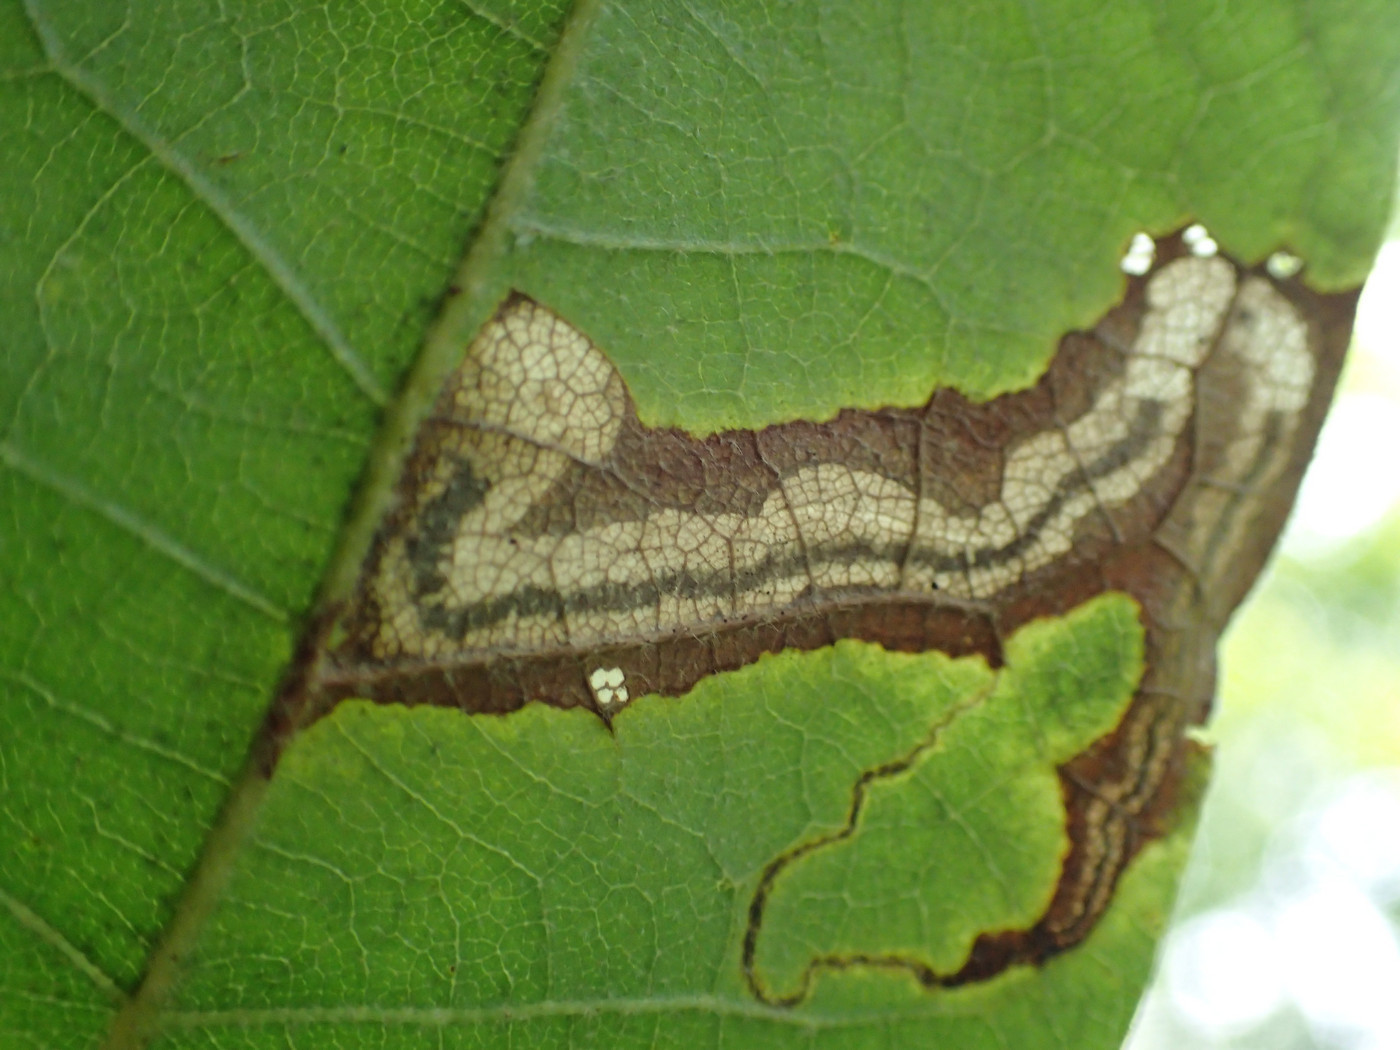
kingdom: Animalia
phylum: Arthropoda
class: Insecta
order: Lepidoptera
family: Nepticulidae
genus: Stigmella
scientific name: Stigmella quercipulchella
